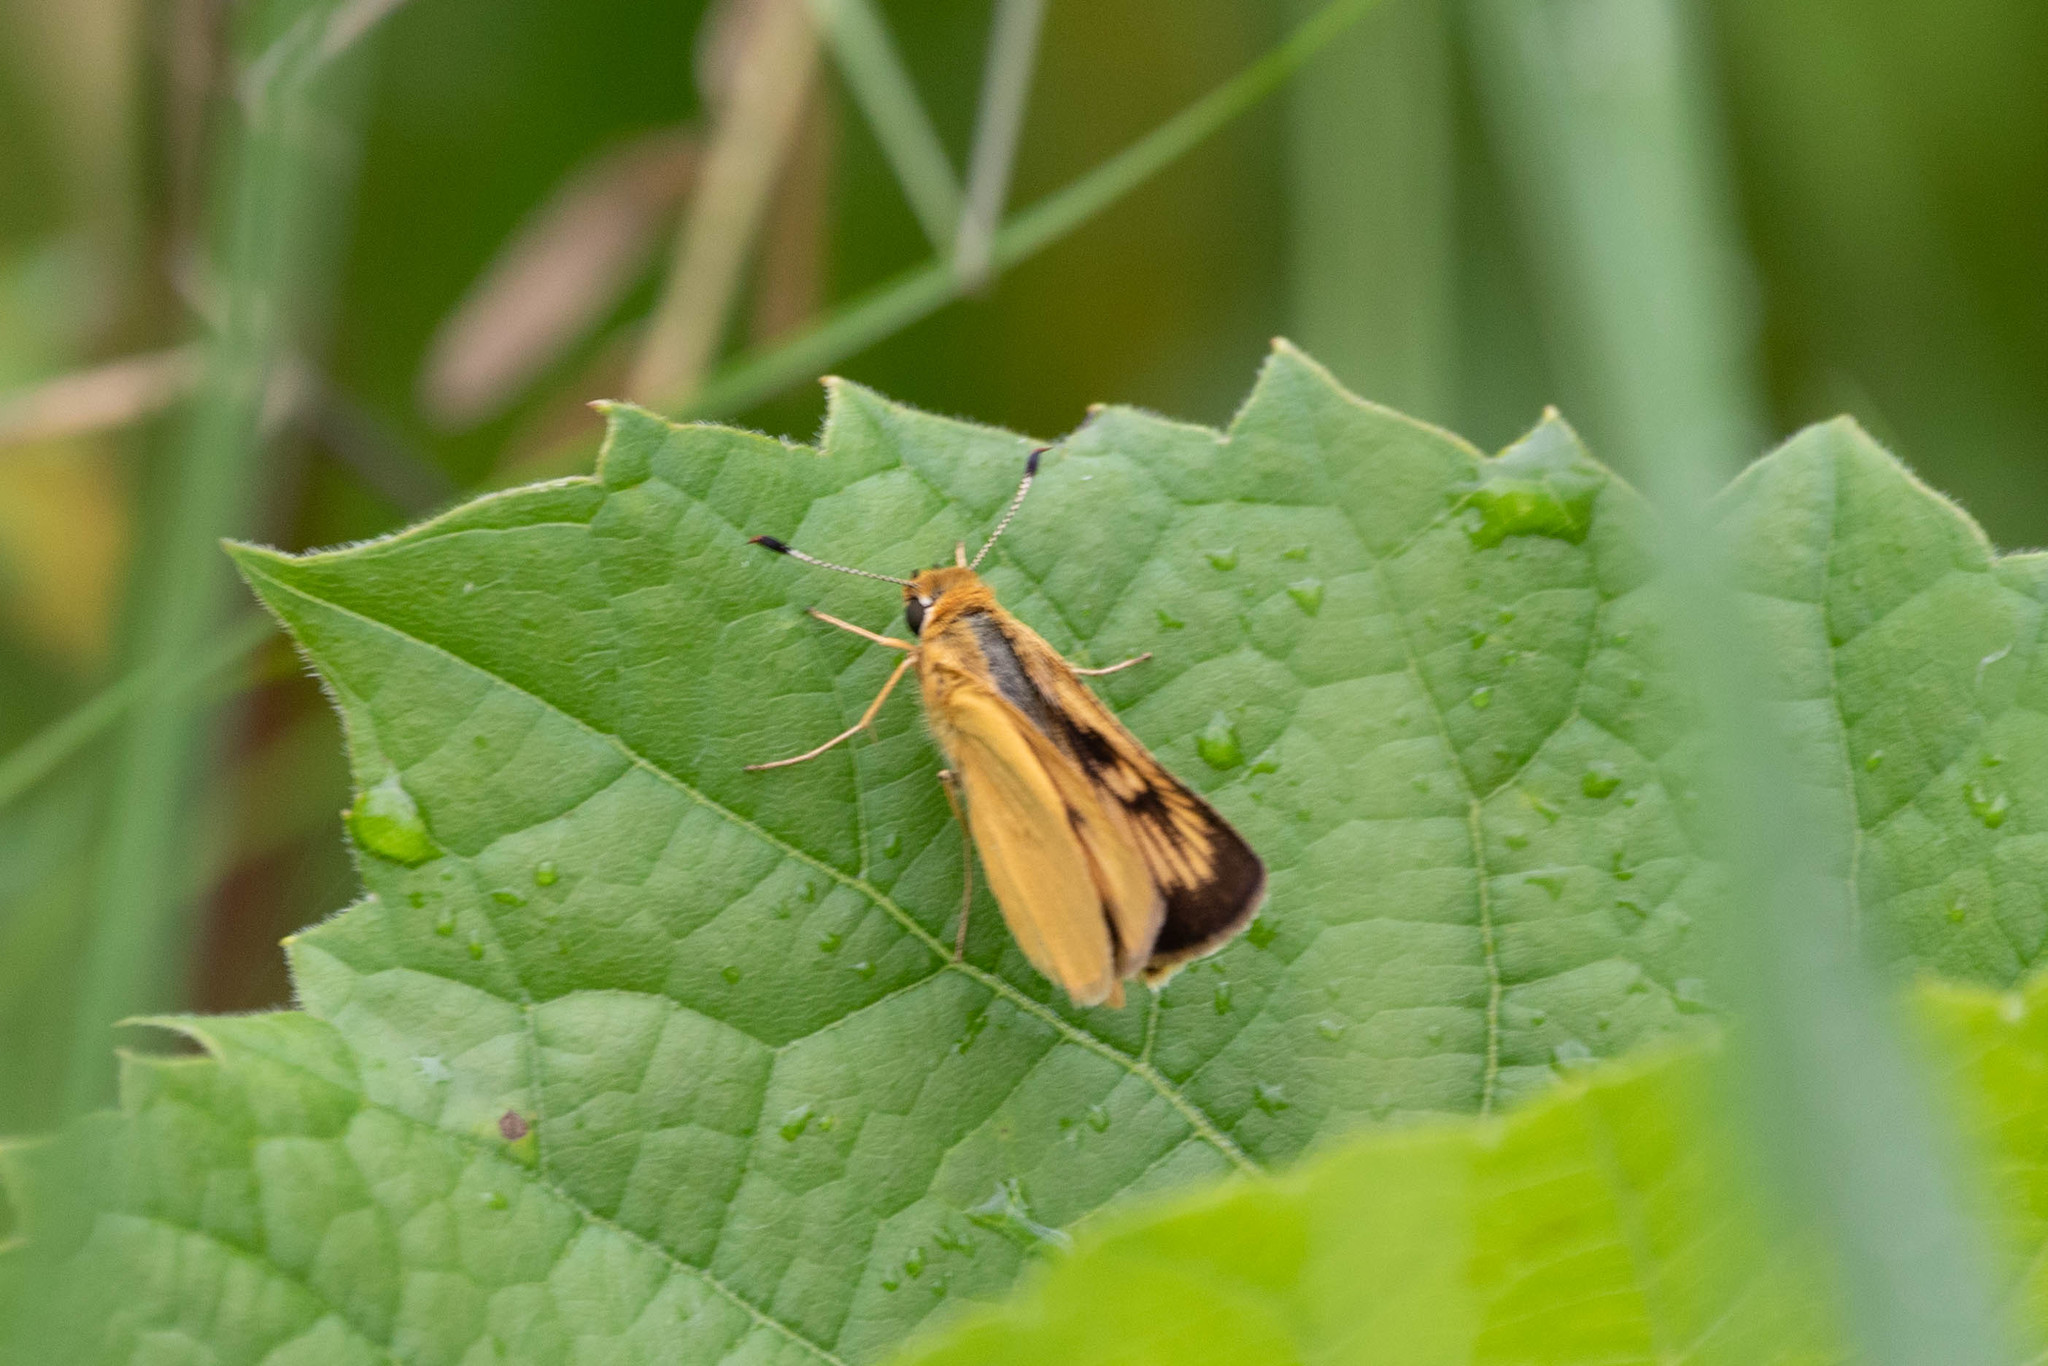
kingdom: Animalia
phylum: Arthropoda
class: Insecta
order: Lepidoptera
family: Hesperiidae
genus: Atrytone
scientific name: Atrytone delaware
